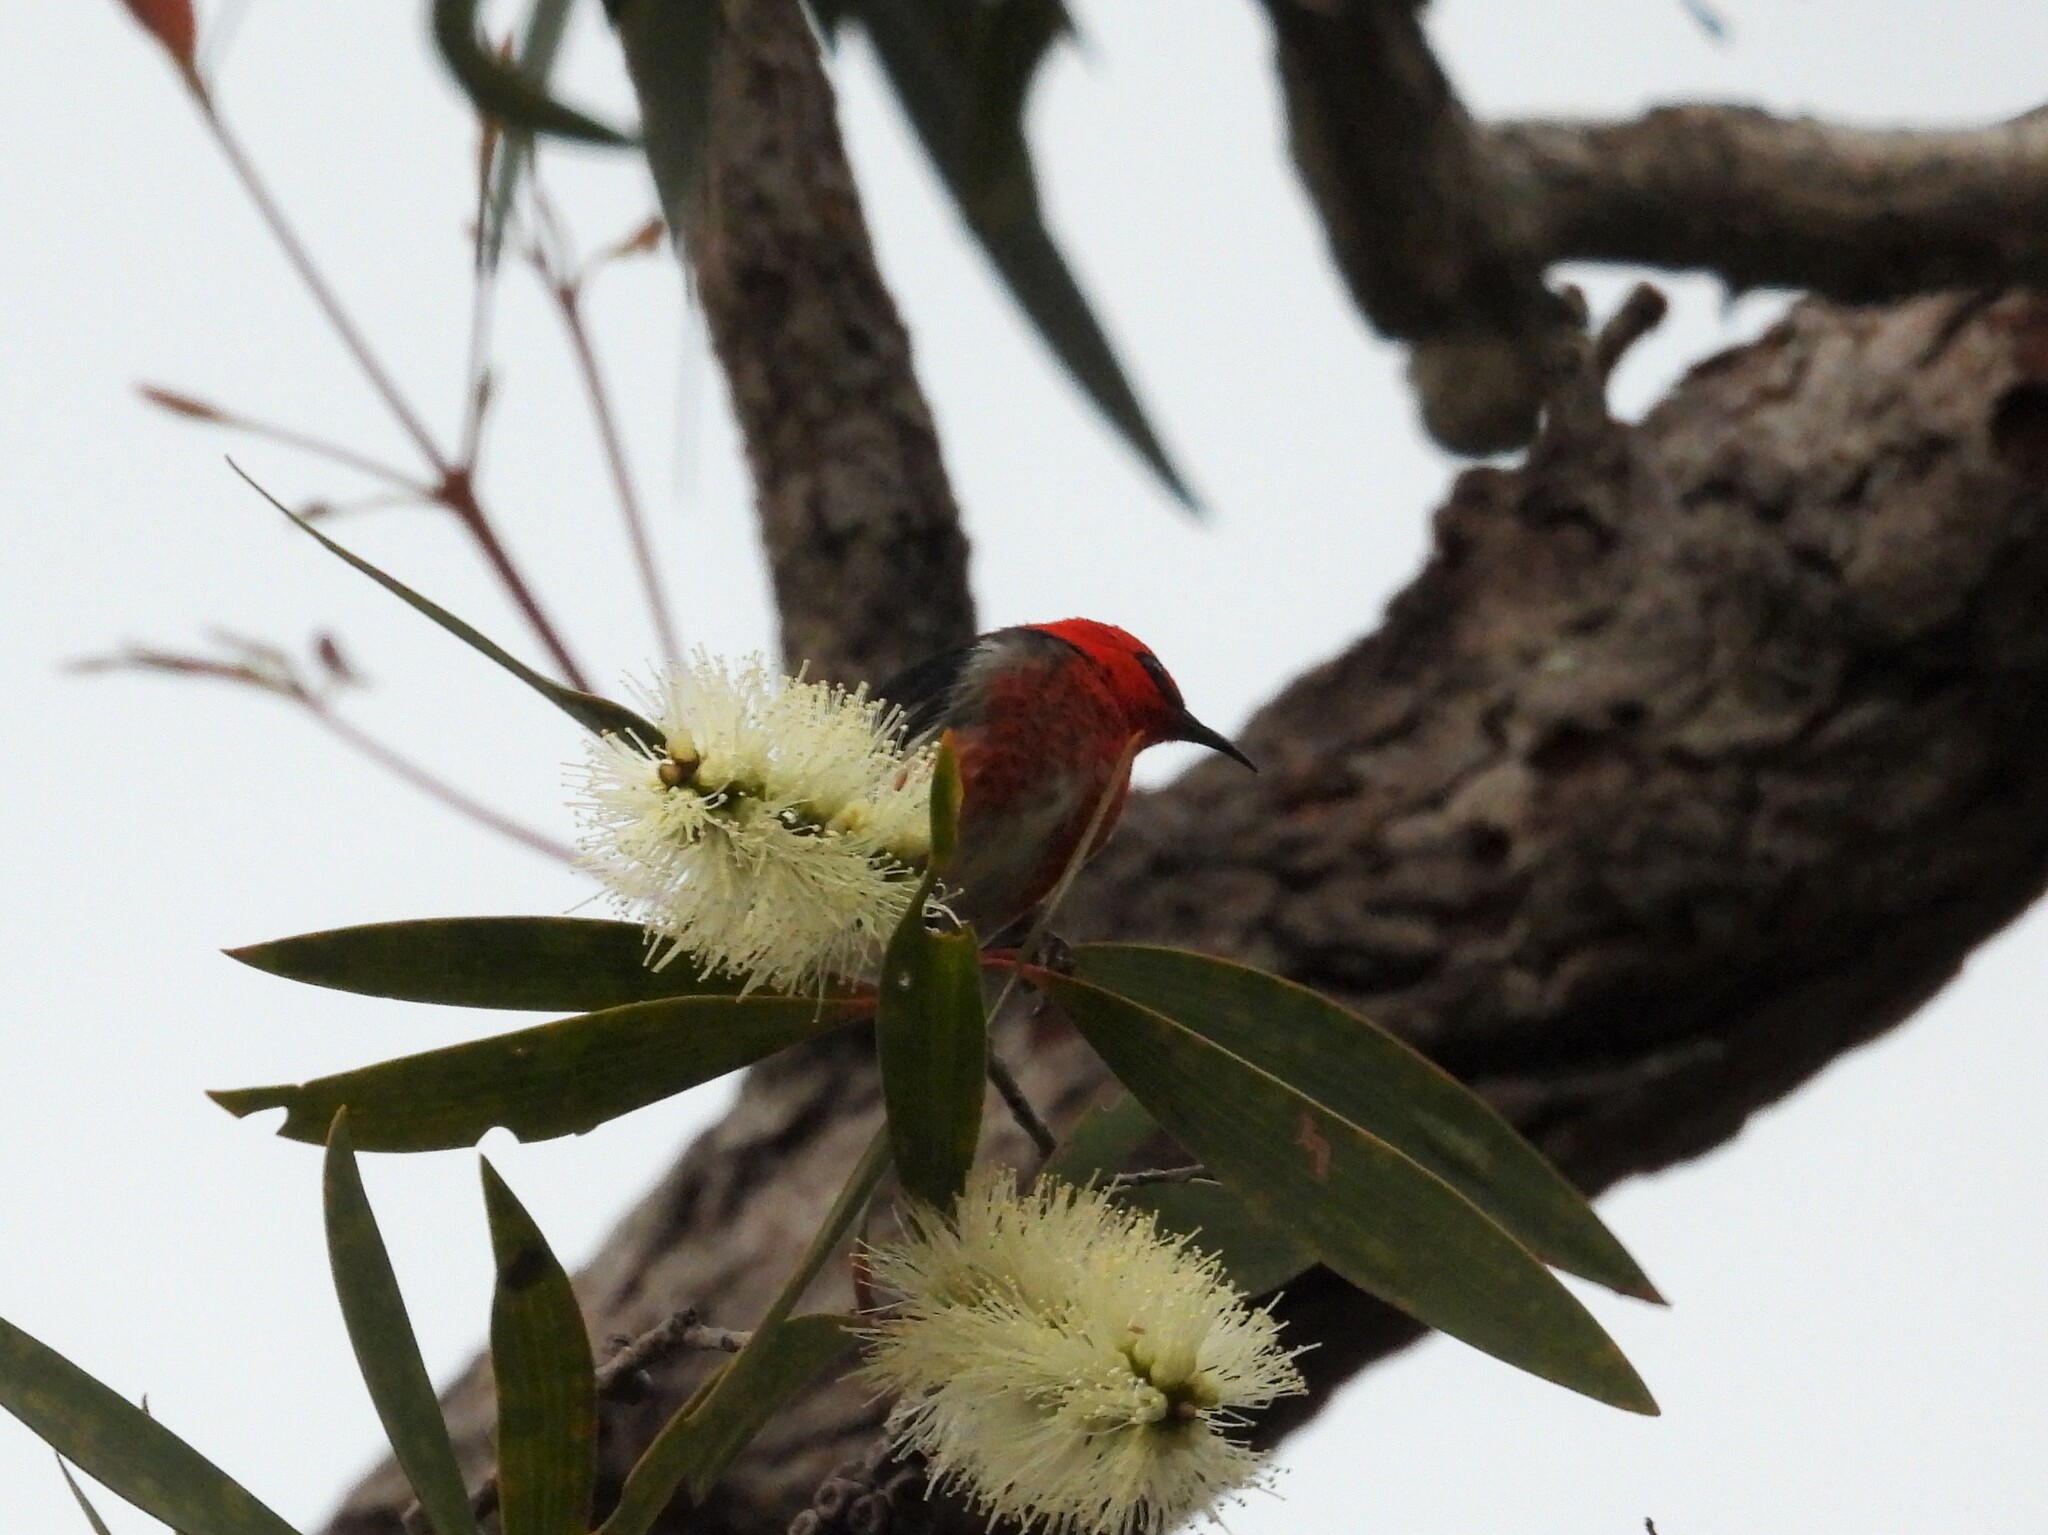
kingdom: Animalia
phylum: Chordata
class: Aves
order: Passeriformes
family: Meliphagidae
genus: Myzomela
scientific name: Myzomela sanguinolenta
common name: Scarlet myzomela
